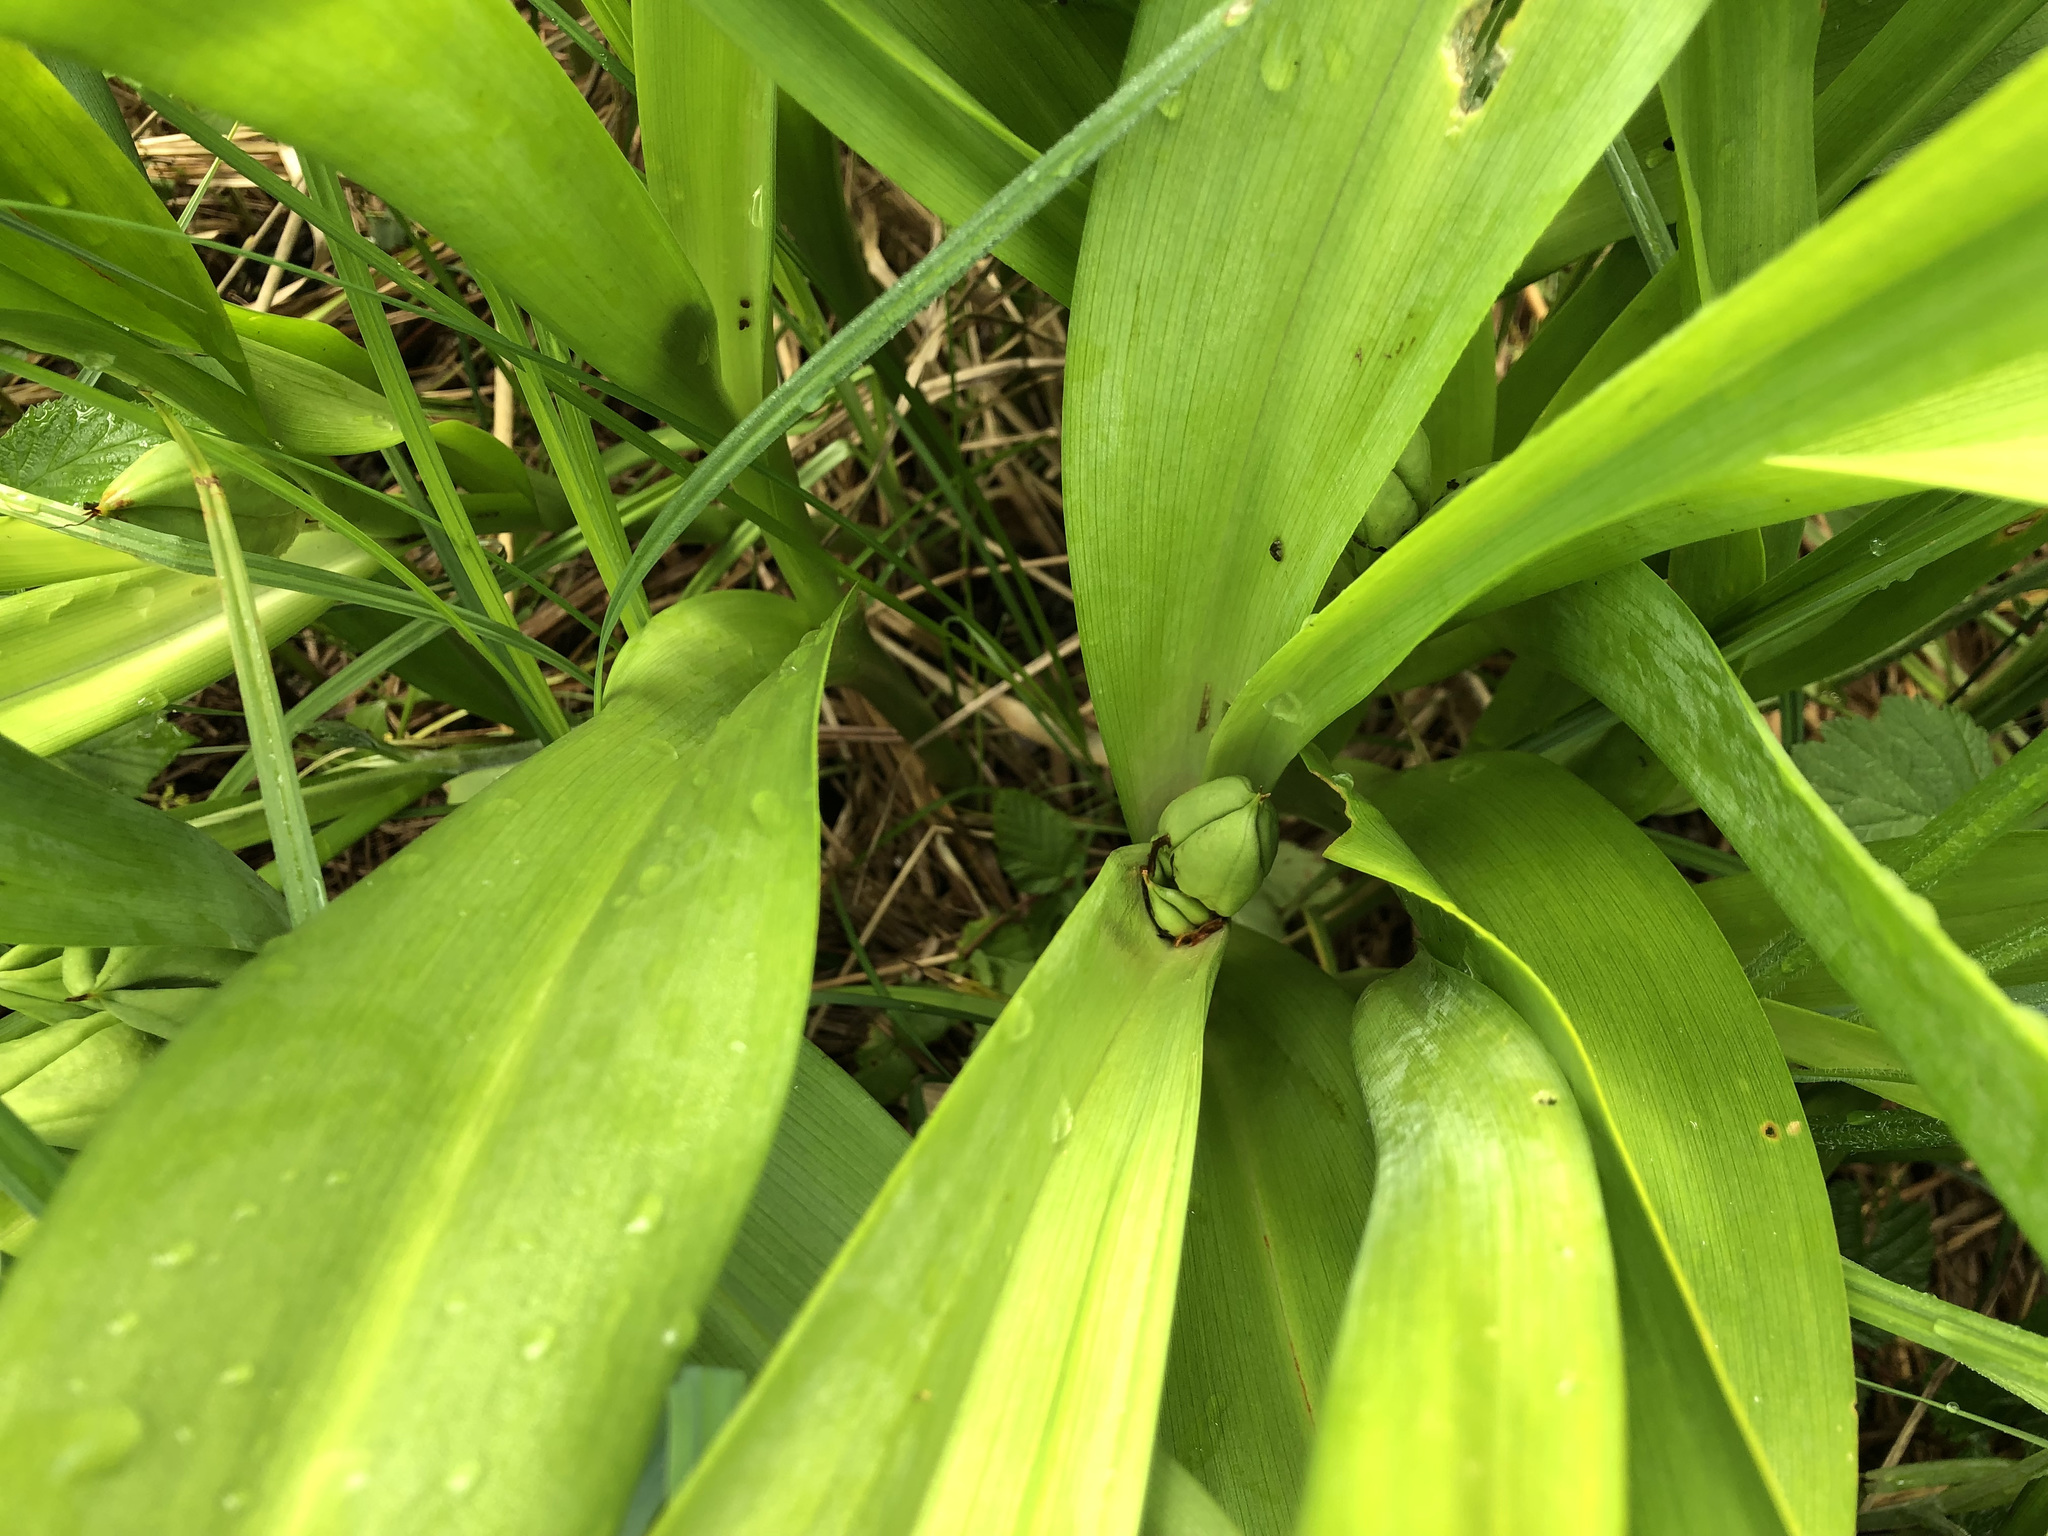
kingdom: Plantae
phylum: Tracheophyta
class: Liliopsida
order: Liliales
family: Colchicaceae
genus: Colchicum
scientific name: Colchicum autumnale
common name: Autumn crocus
